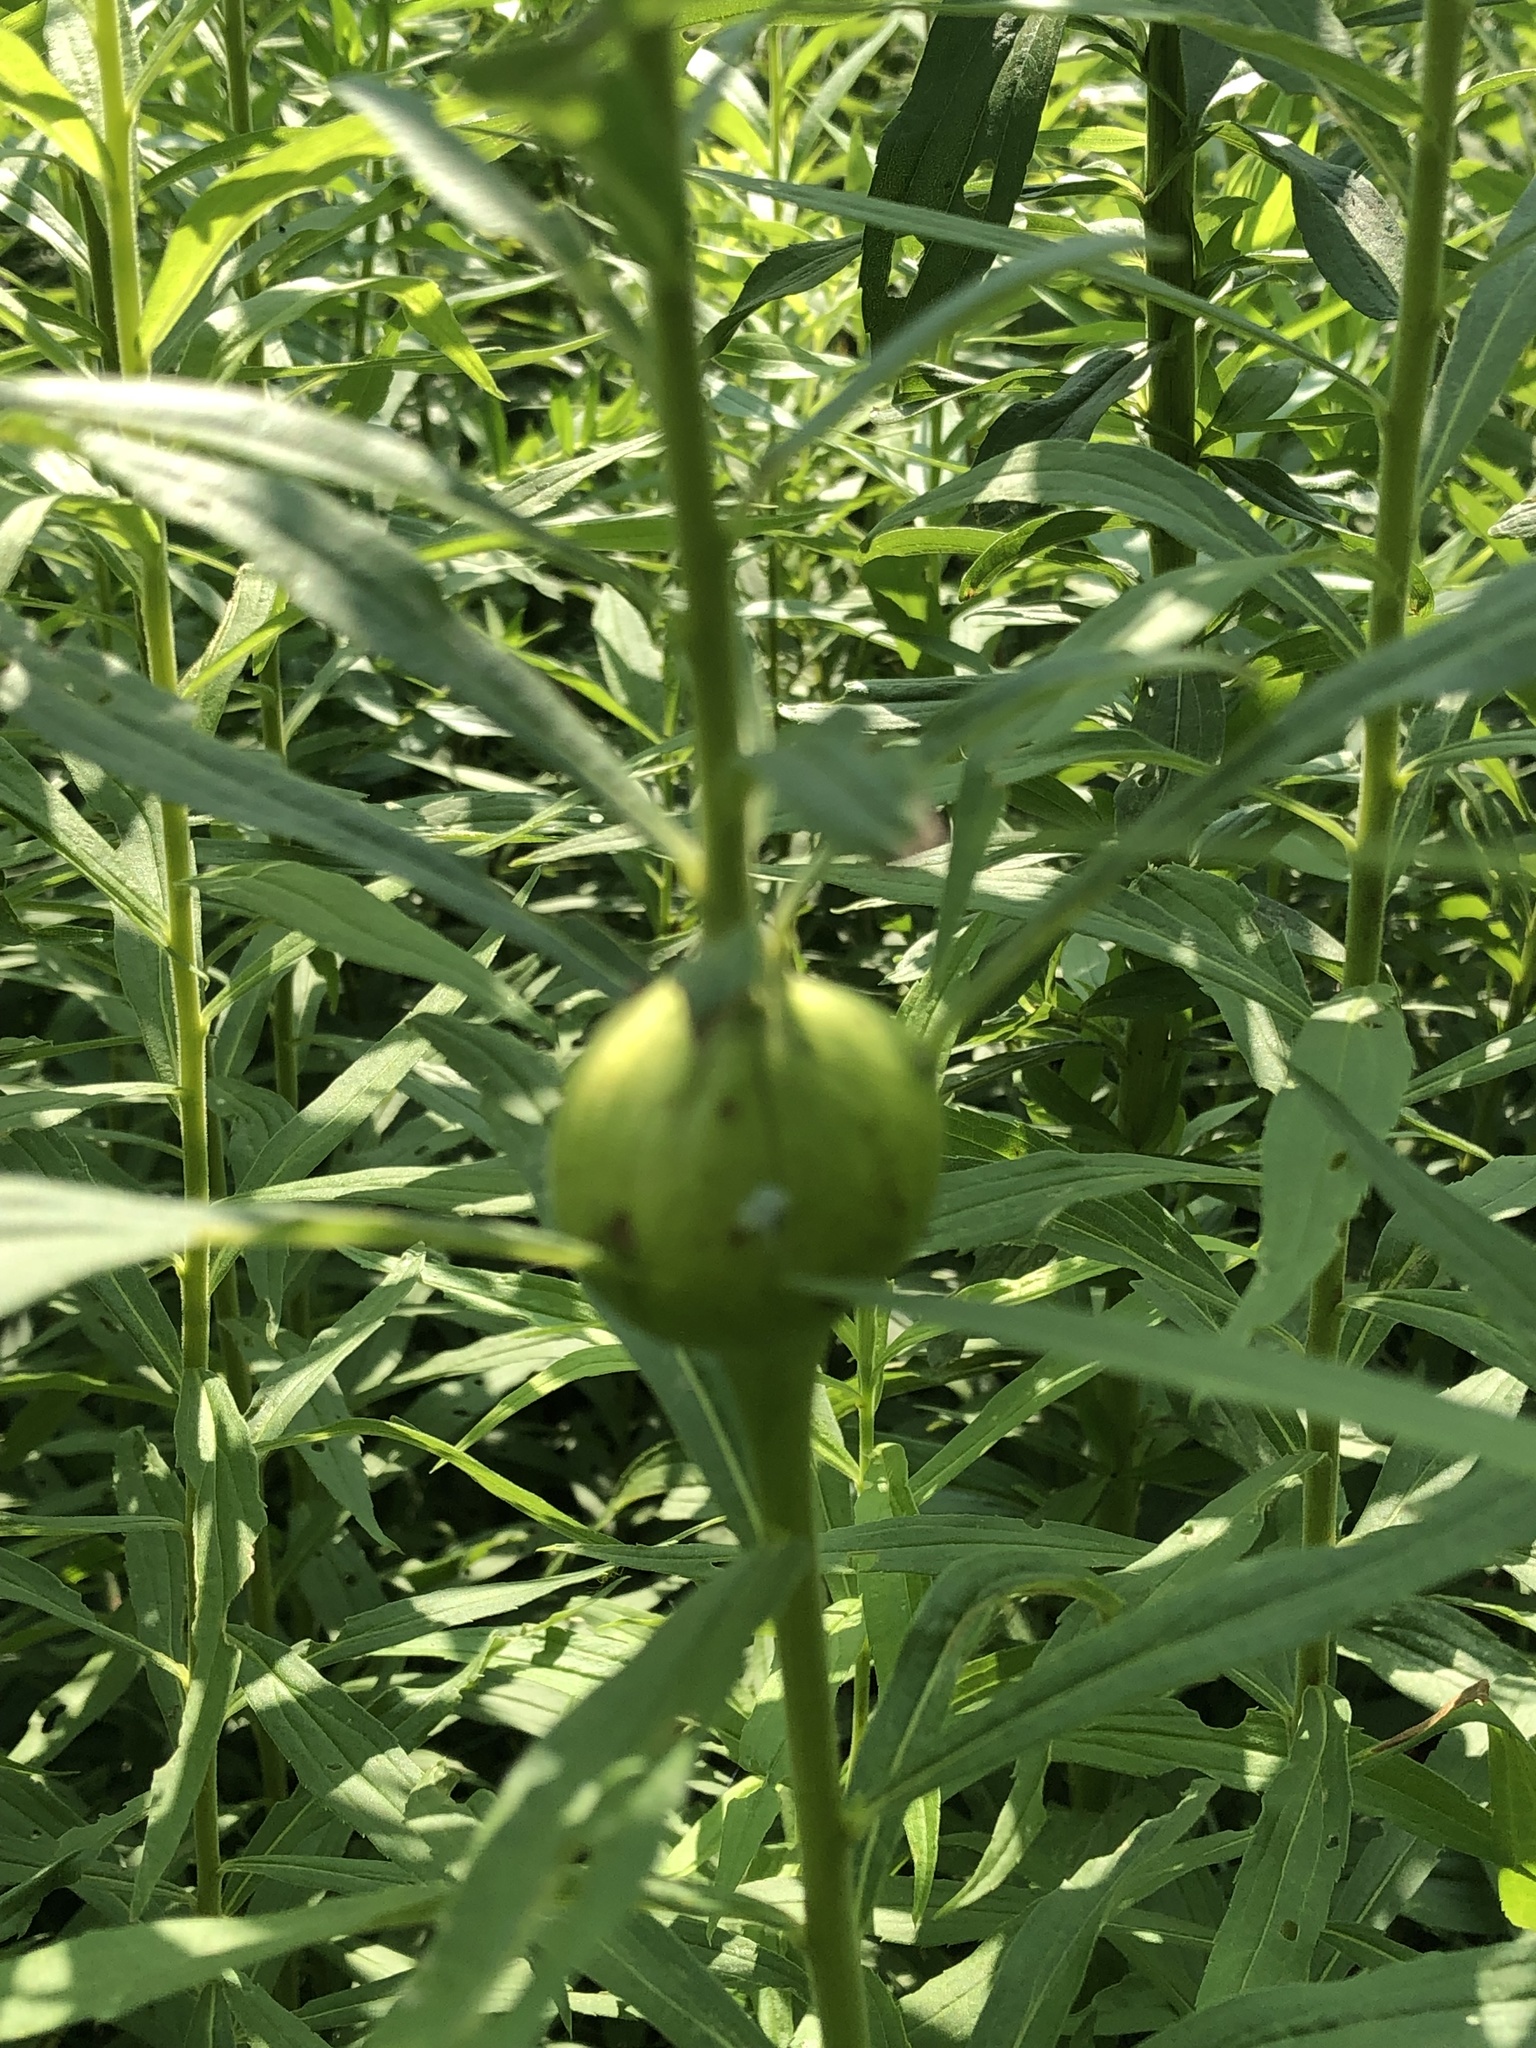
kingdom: Animalia
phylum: Arthropoda
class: Insecta
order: Diptera
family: Tephritidae
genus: Eurosta
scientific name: Eurosta solidaginis
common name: Goldenrod gall fly
